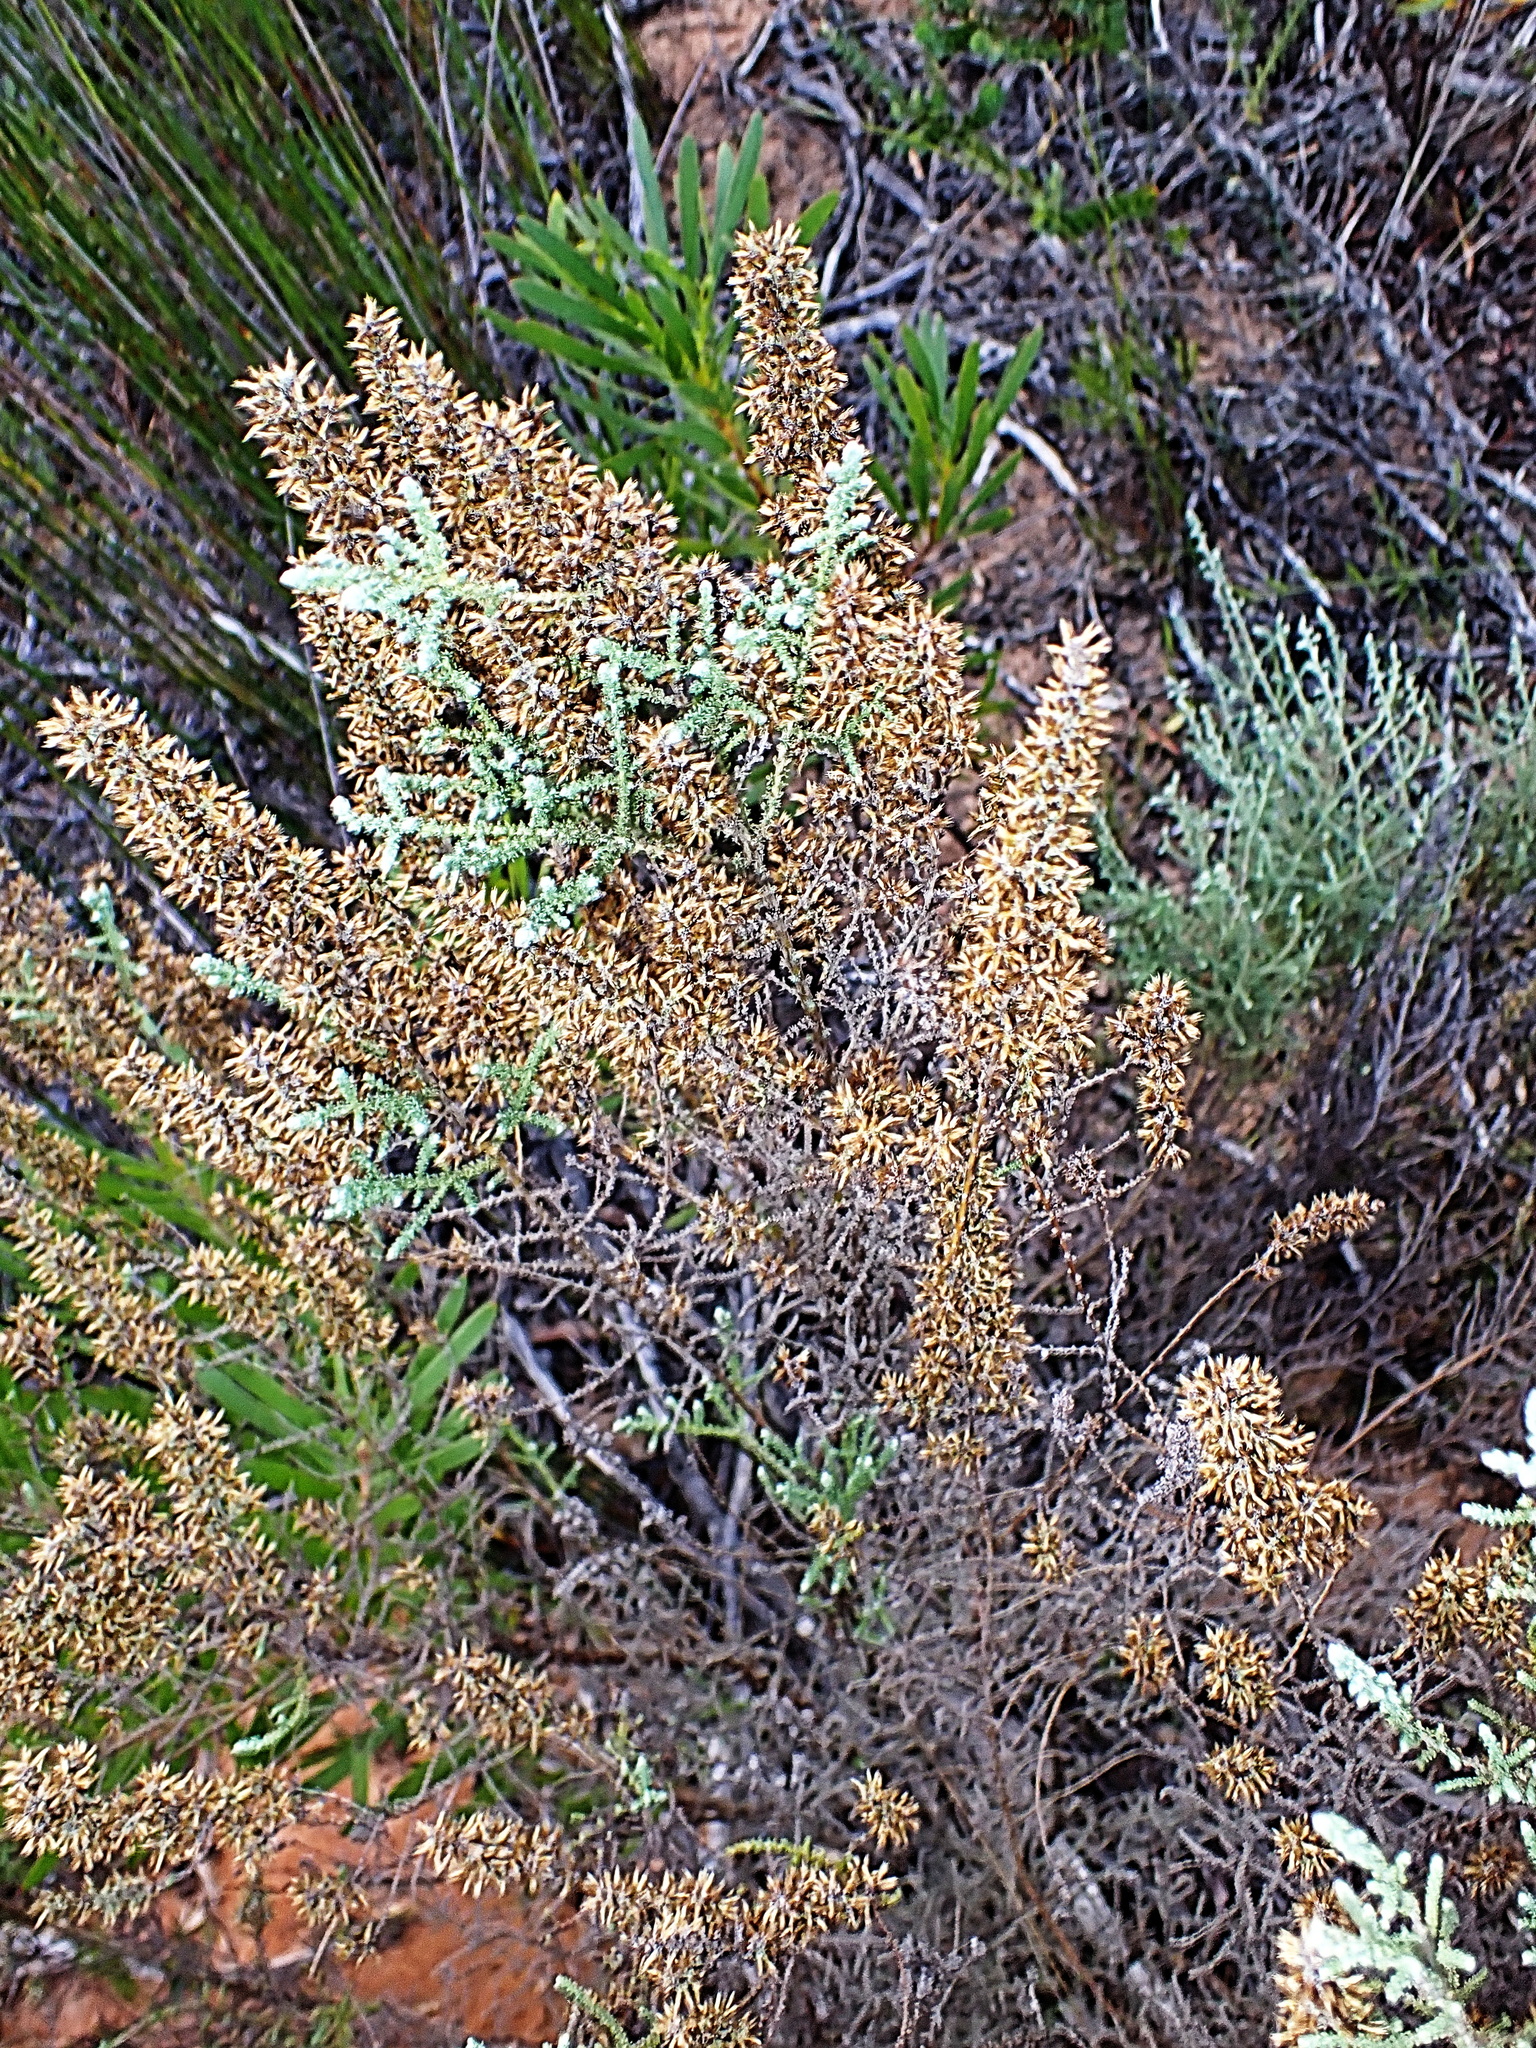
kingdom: Plantae
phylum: Tracheophyta
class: Magnoliopsida
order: Asterales
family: Asteraceae
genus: Seriphium
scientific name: Seriphium plumosum
